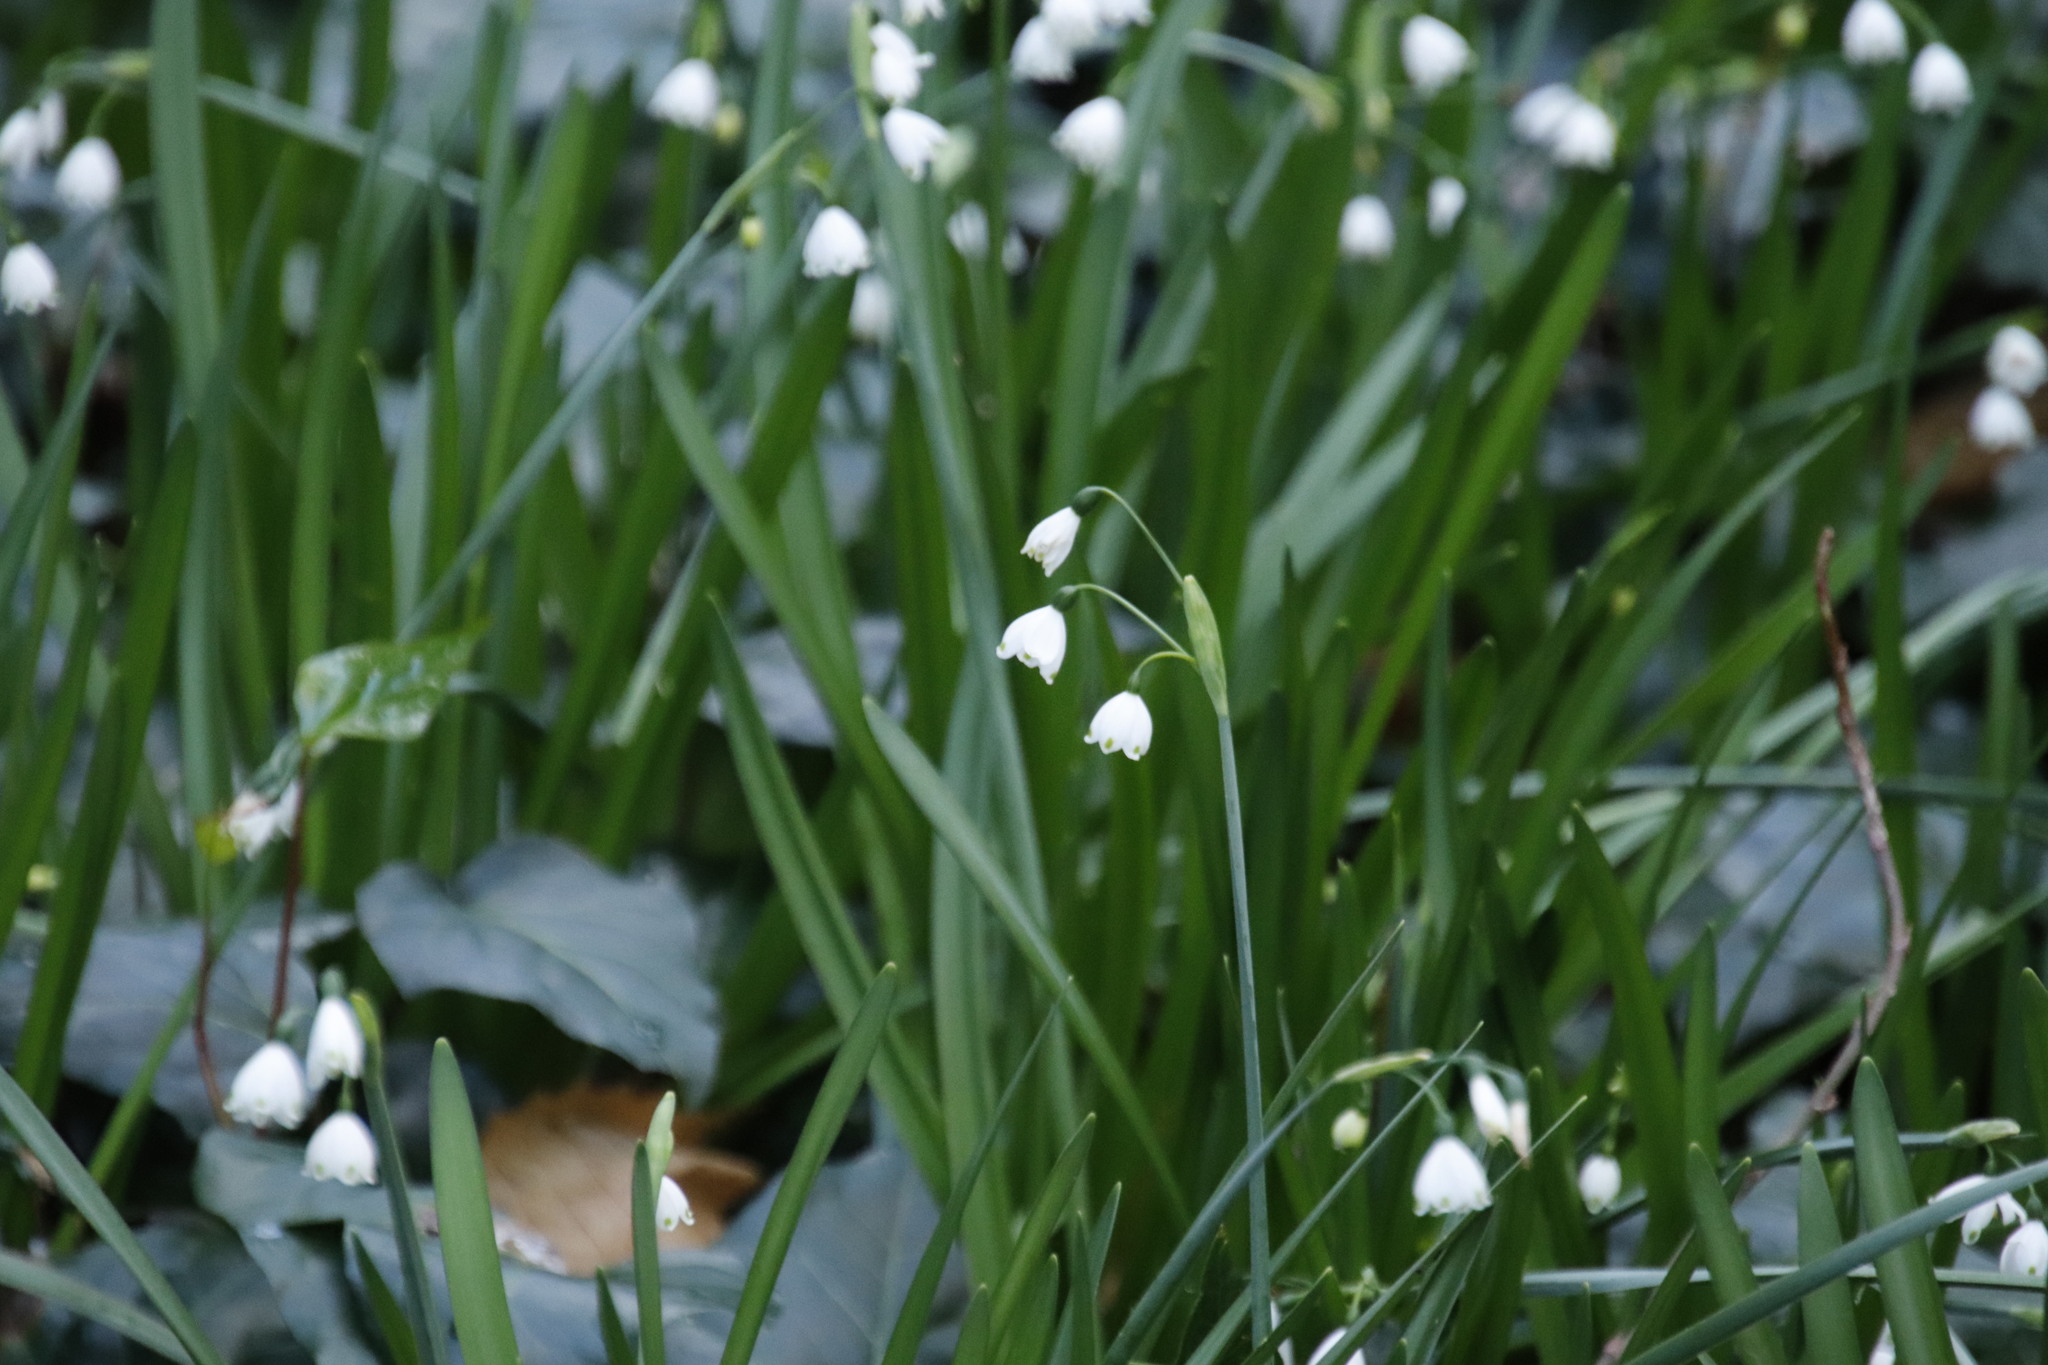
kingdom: Plantae
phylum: Tracheophyta
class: Liliopsida
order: Asparagales
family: Amaryllidaceae
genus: Leucojum
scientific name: Leucojum aestivum
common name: Summer snowflake
